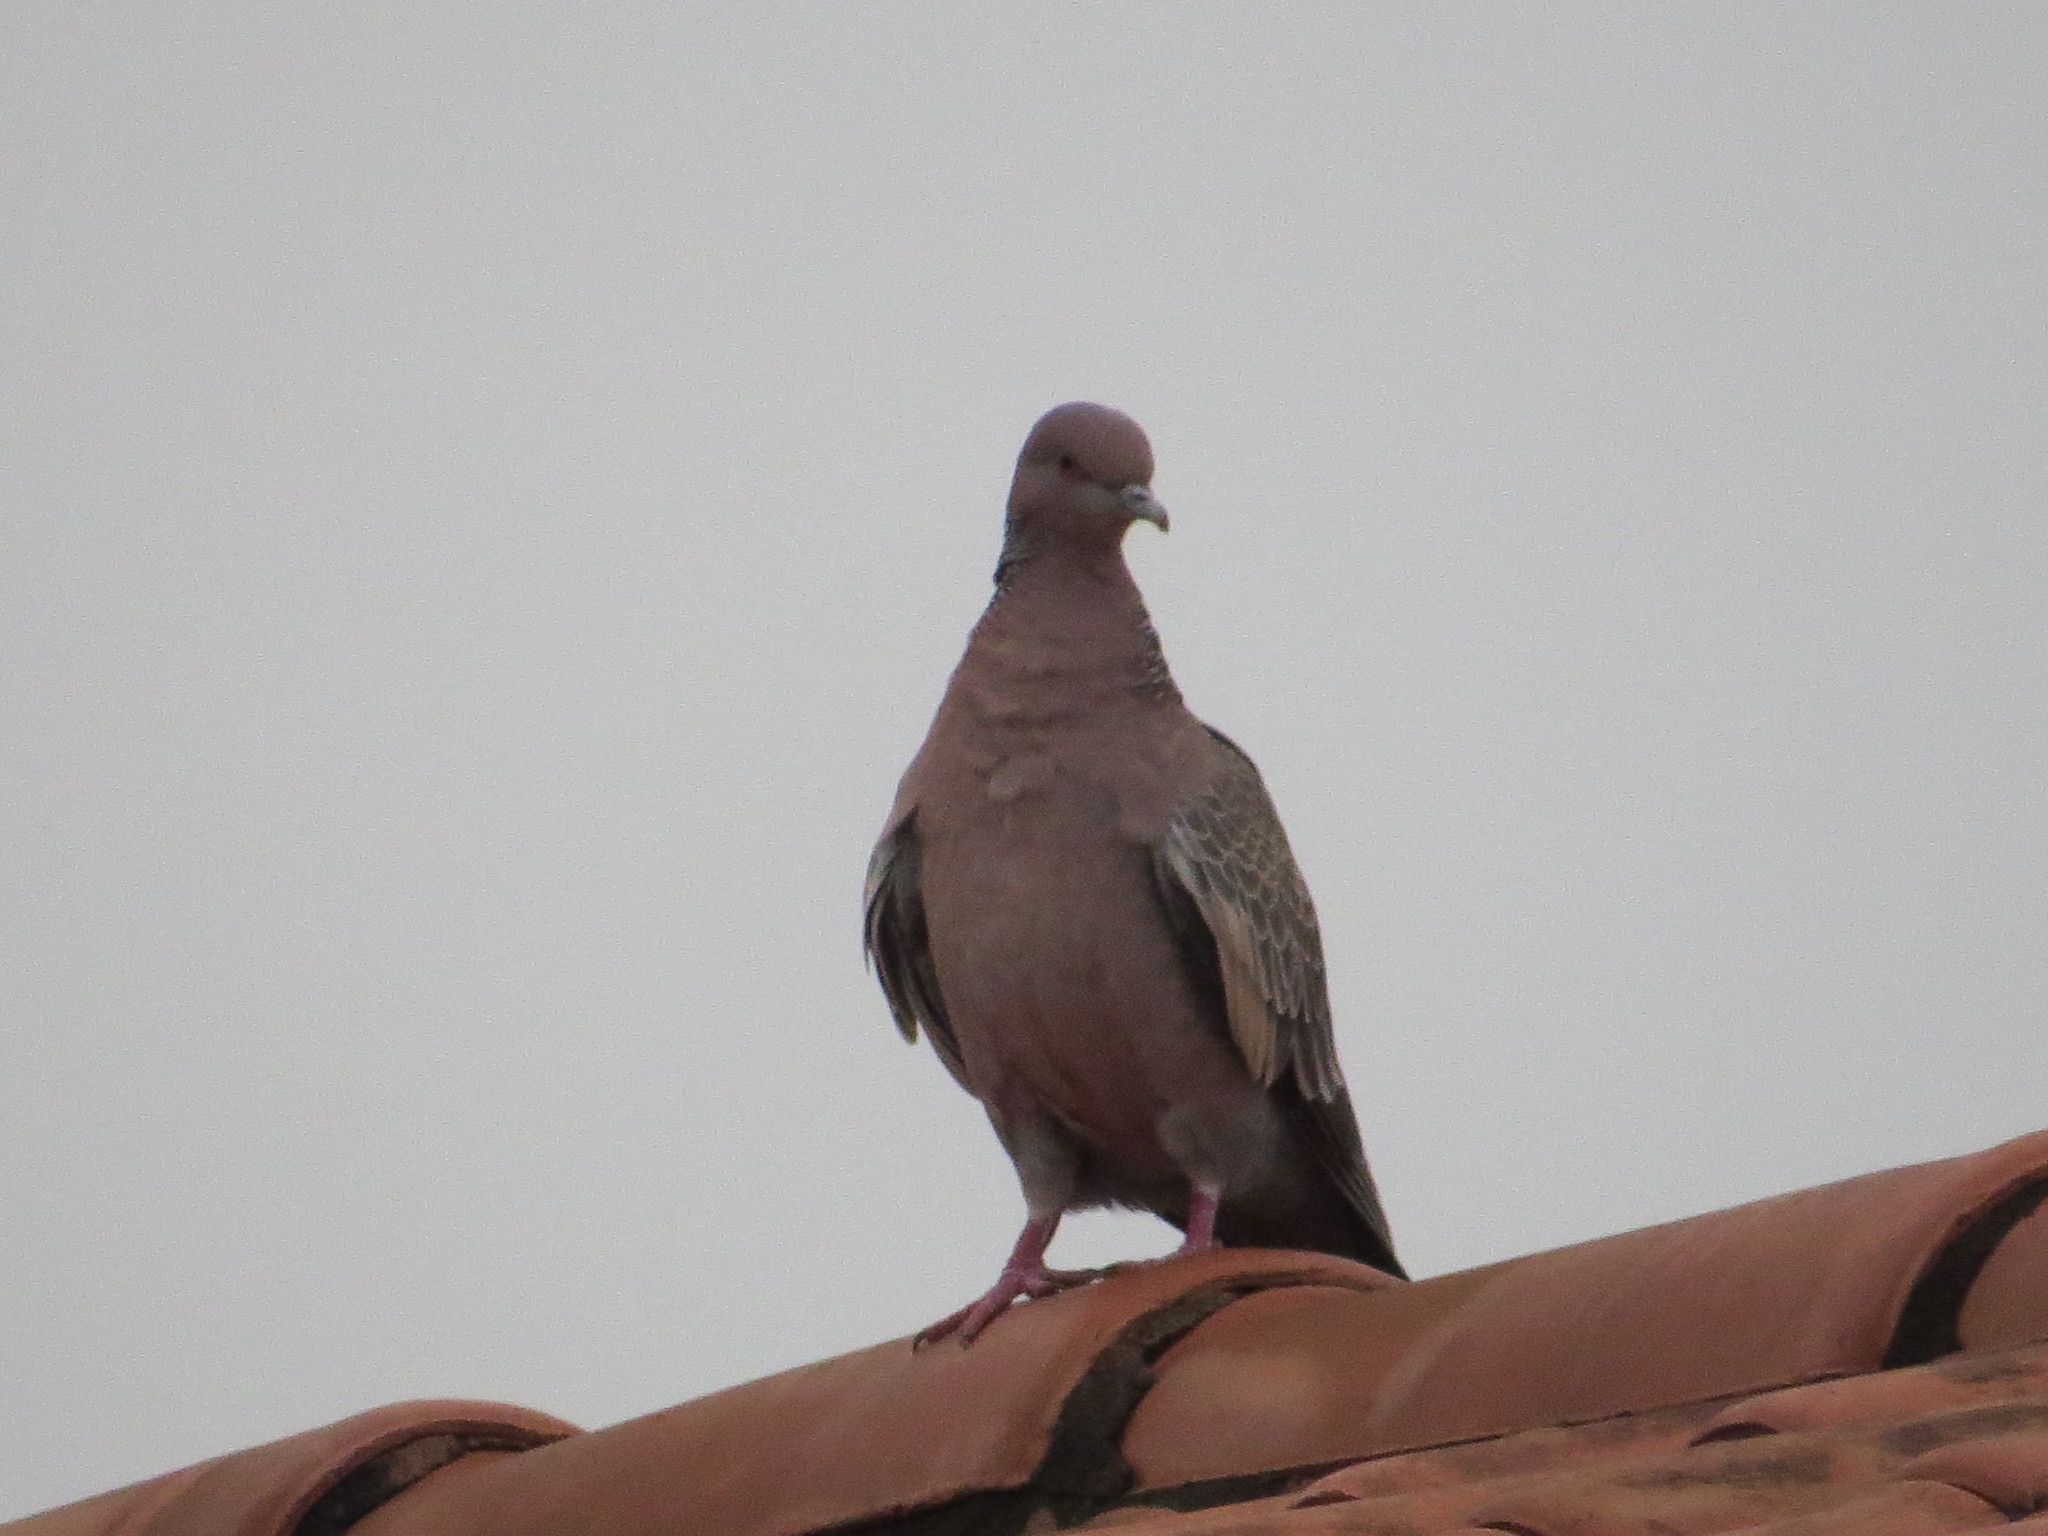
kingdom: Animalia
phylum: Chordata
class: Aves
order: Columbiformes
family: Columbidae
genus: Patagioenas
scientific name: Patagioenas picazuro
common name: Picazuro pigeon
